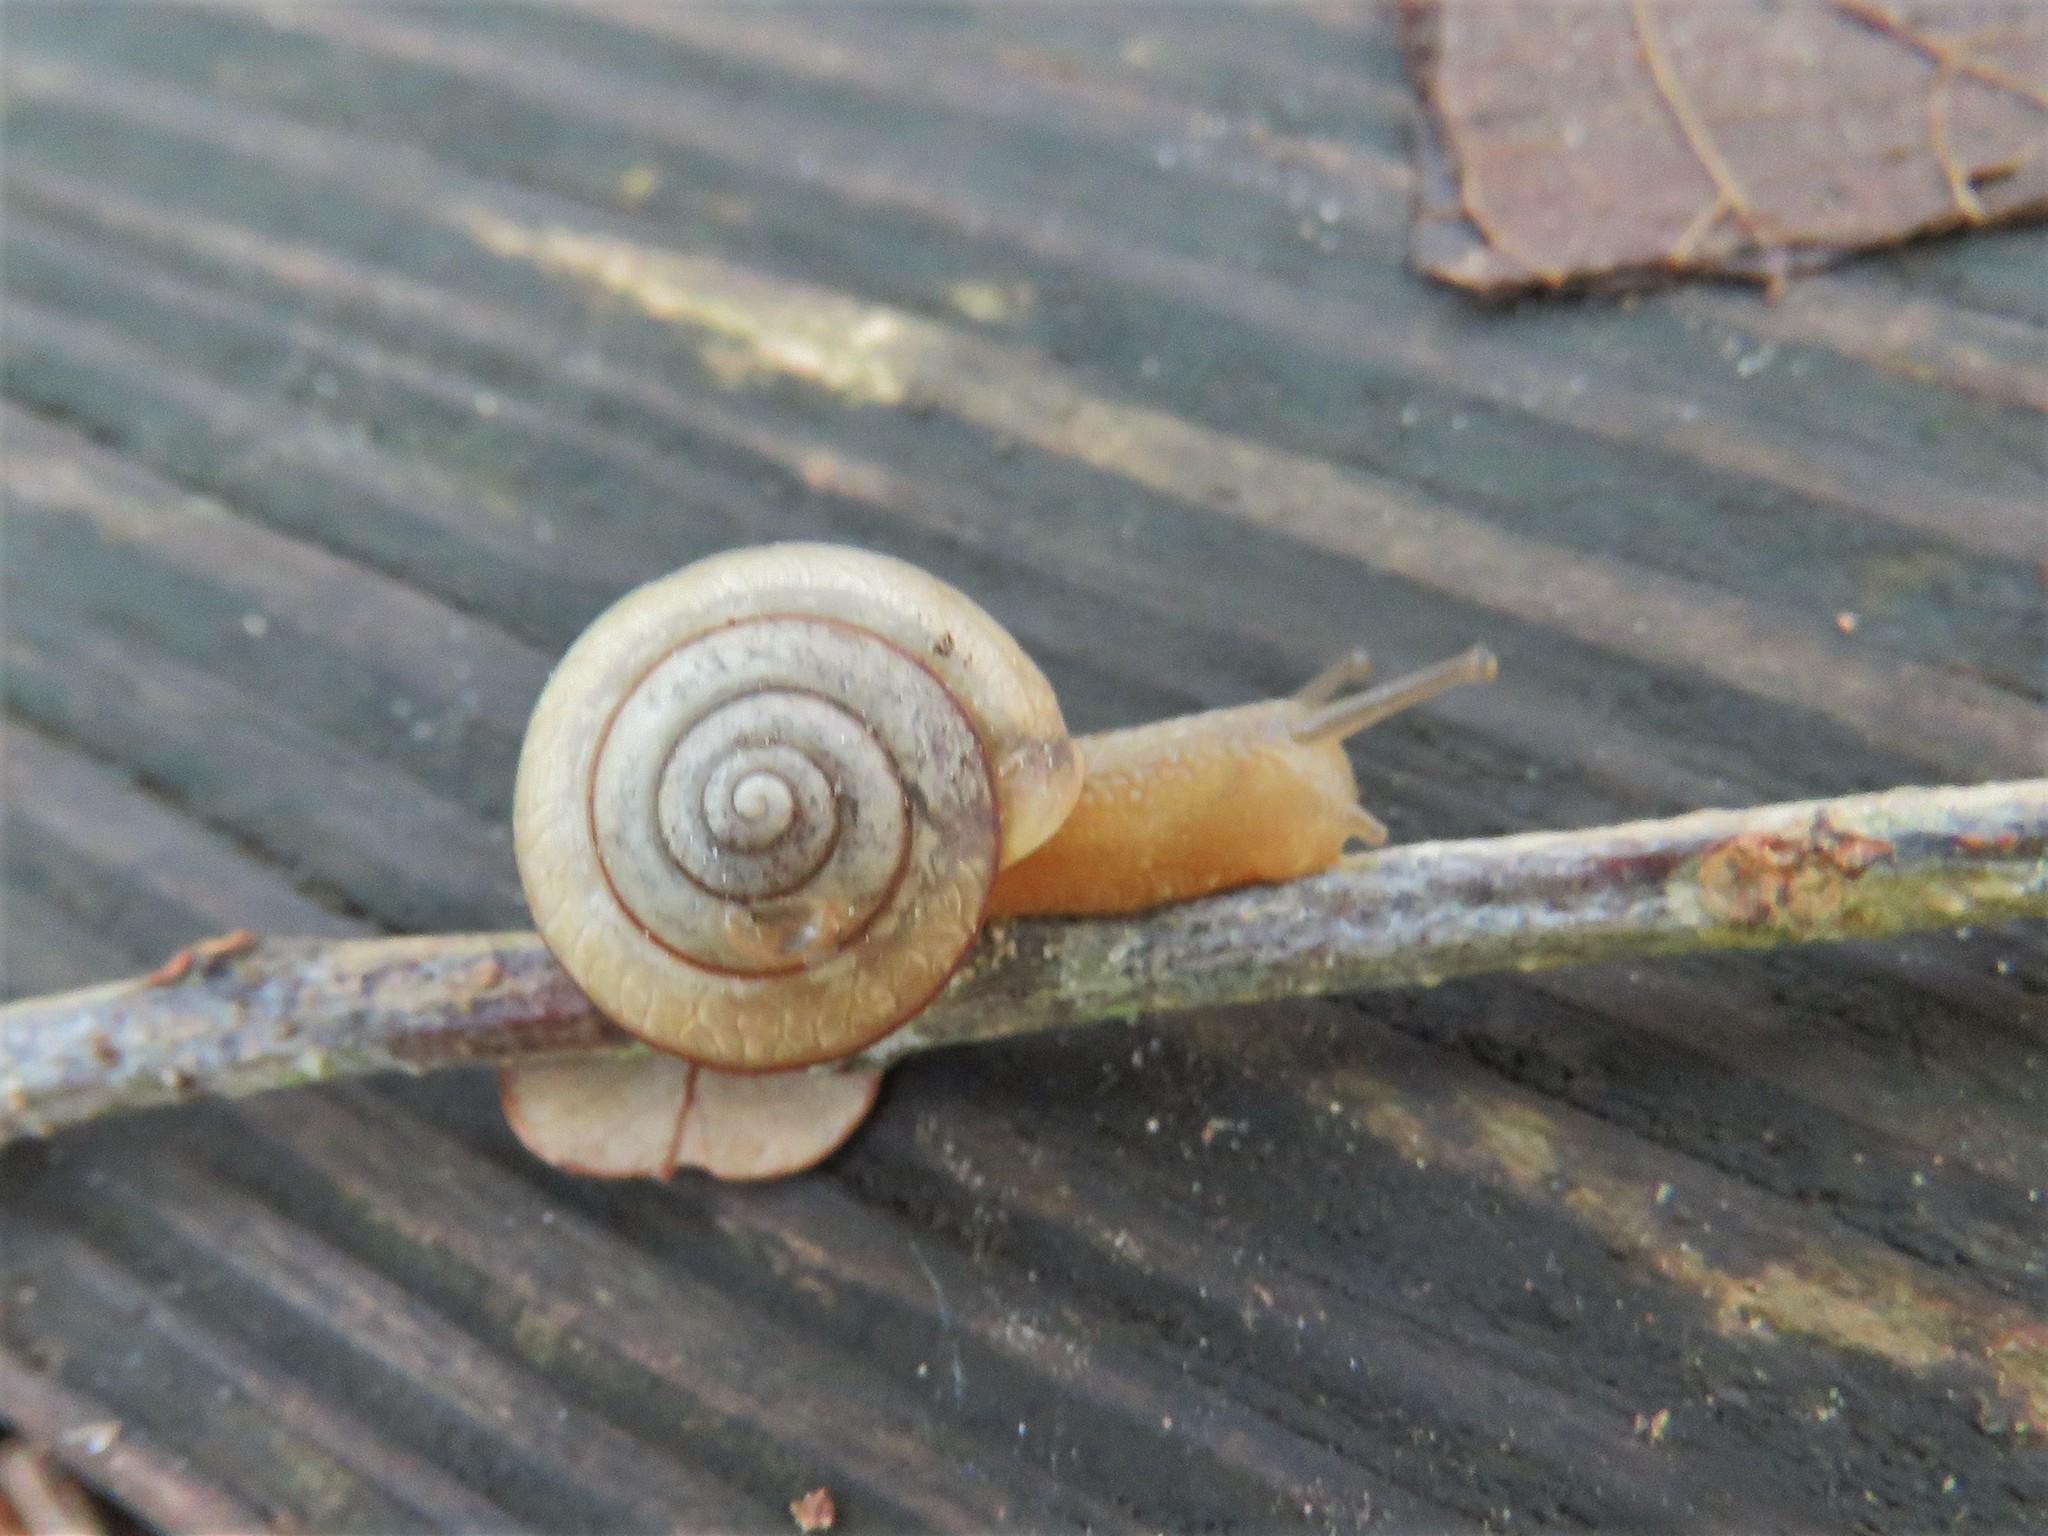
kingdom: Animalia
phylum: Mollusca
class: Gastropoda
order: Stylommatophora
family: Camaenidae
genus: Bradybaena
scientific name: Bradybaena similaris
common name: Asian trampsnail
